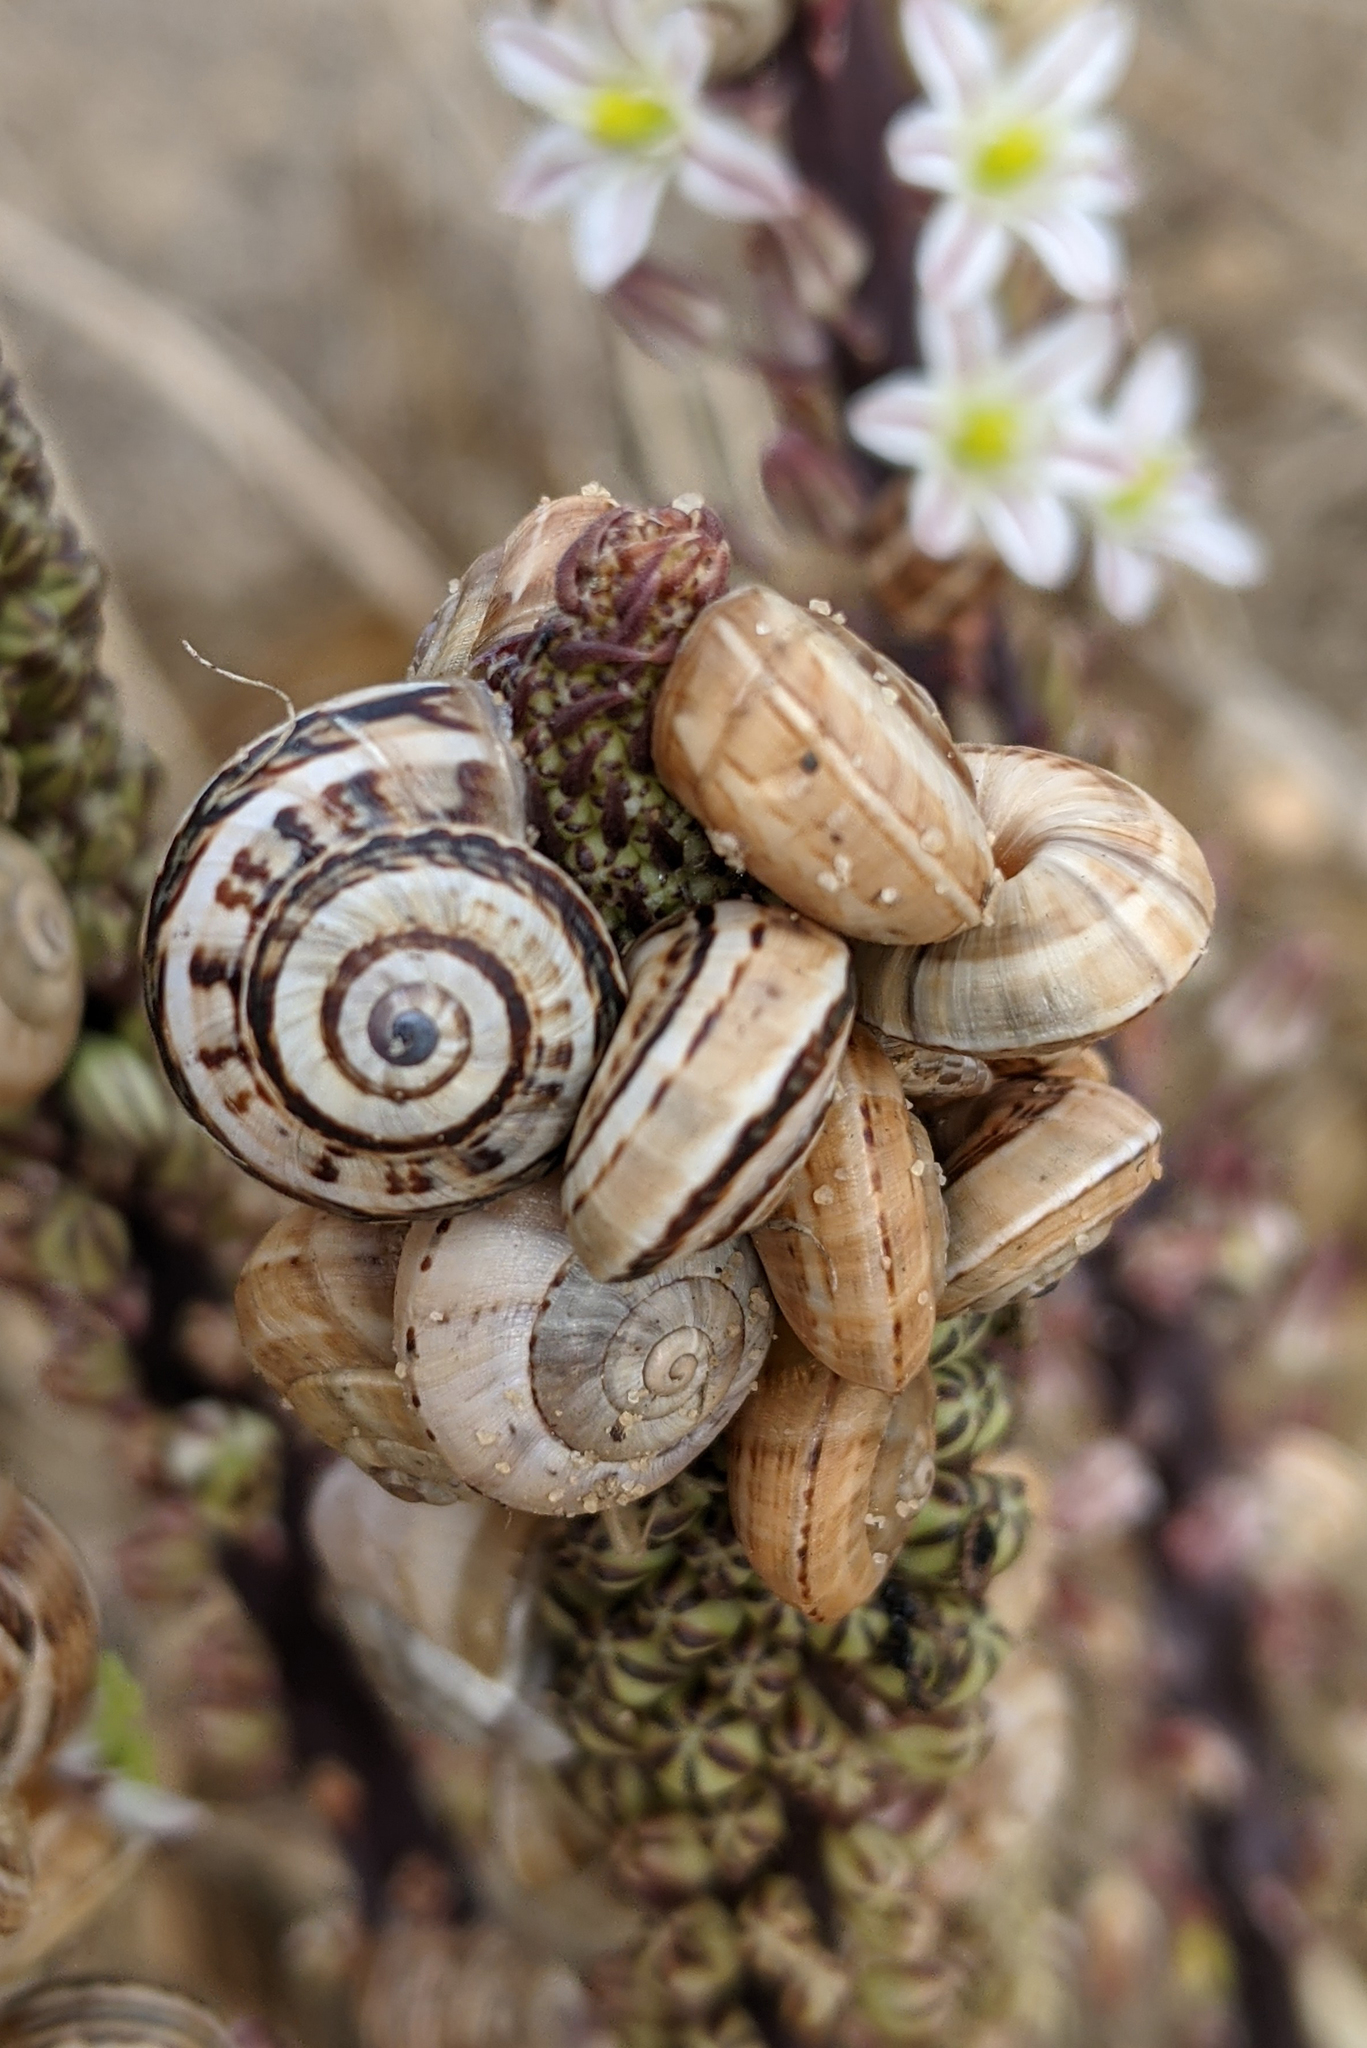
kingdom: Animalia
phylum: Mollusca
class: Gastropoda
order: Stylommatophora
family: Helicidae
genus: Theba
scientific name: Theba pisana
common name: White snail
